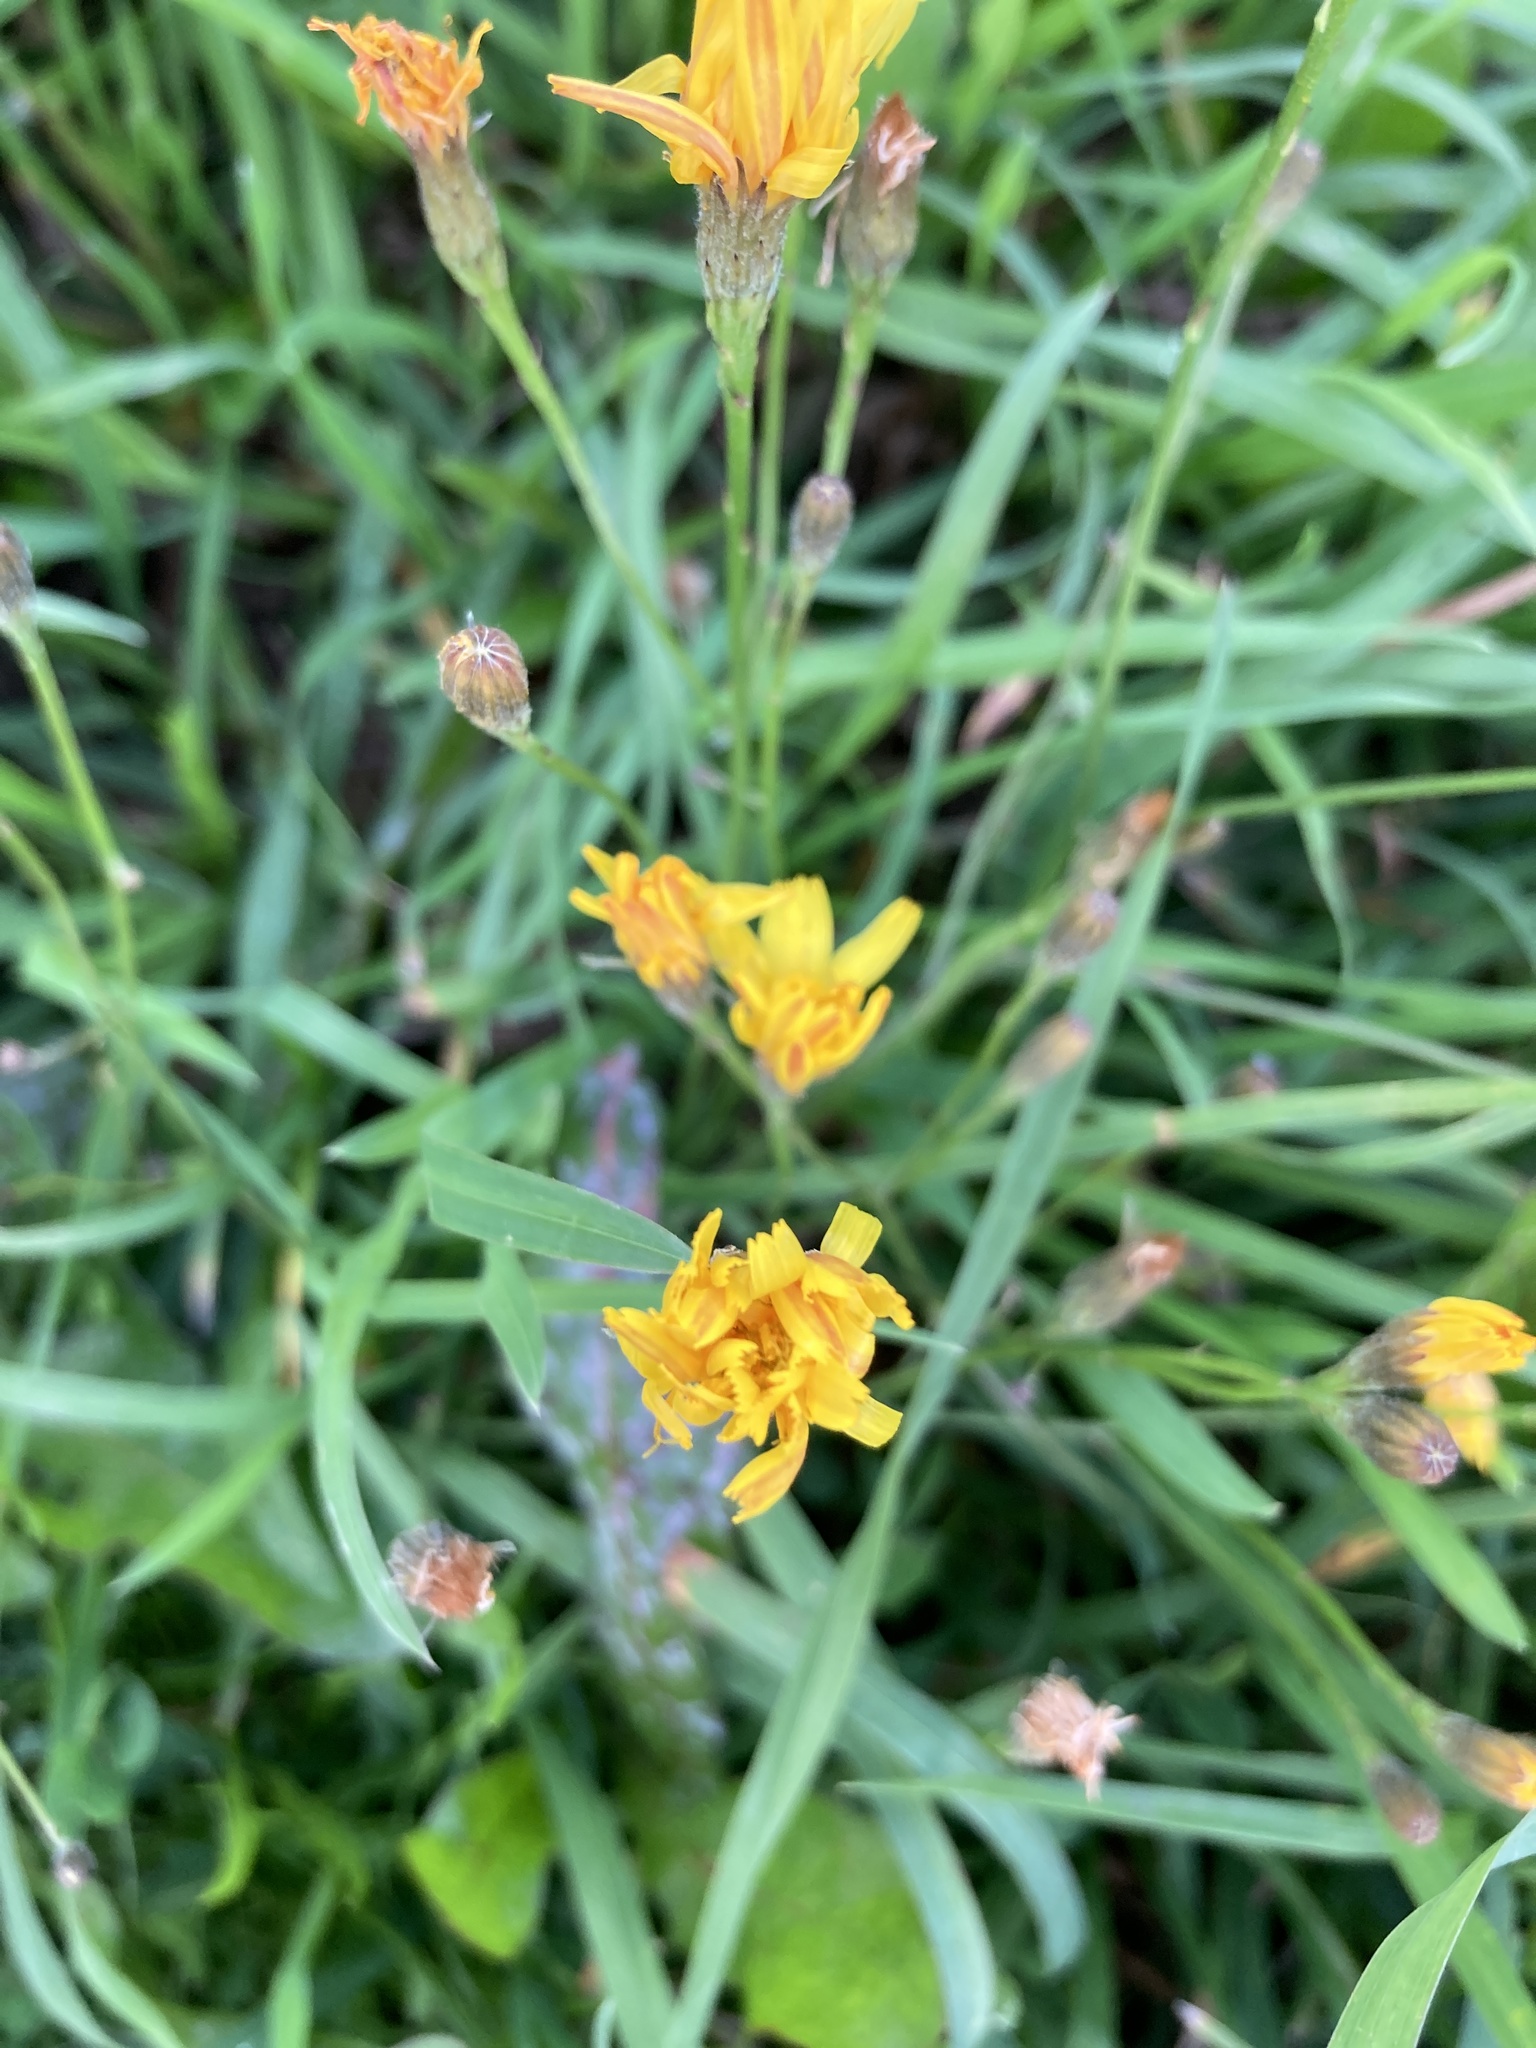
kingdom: Plantae
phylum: Tracheophyta
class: Magnoliopsida
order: Asterales
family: Asteraceae
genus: Scorzoneroides
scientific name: Scorzoneroides autumnalis
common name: Autumn hawkbit
